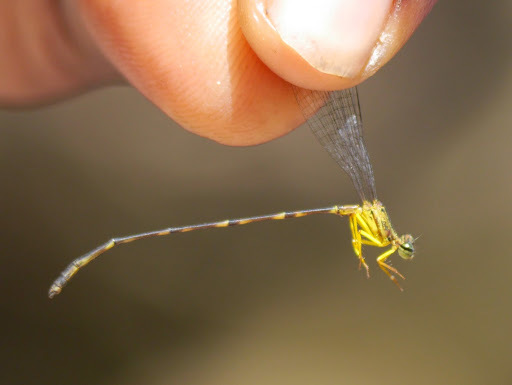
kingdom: Animalia
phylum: Arthropoda
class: Insecta
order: Odonata
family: Platycnemididae
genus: Copera
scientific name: Copera nyansana
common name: Eastern featherleg
